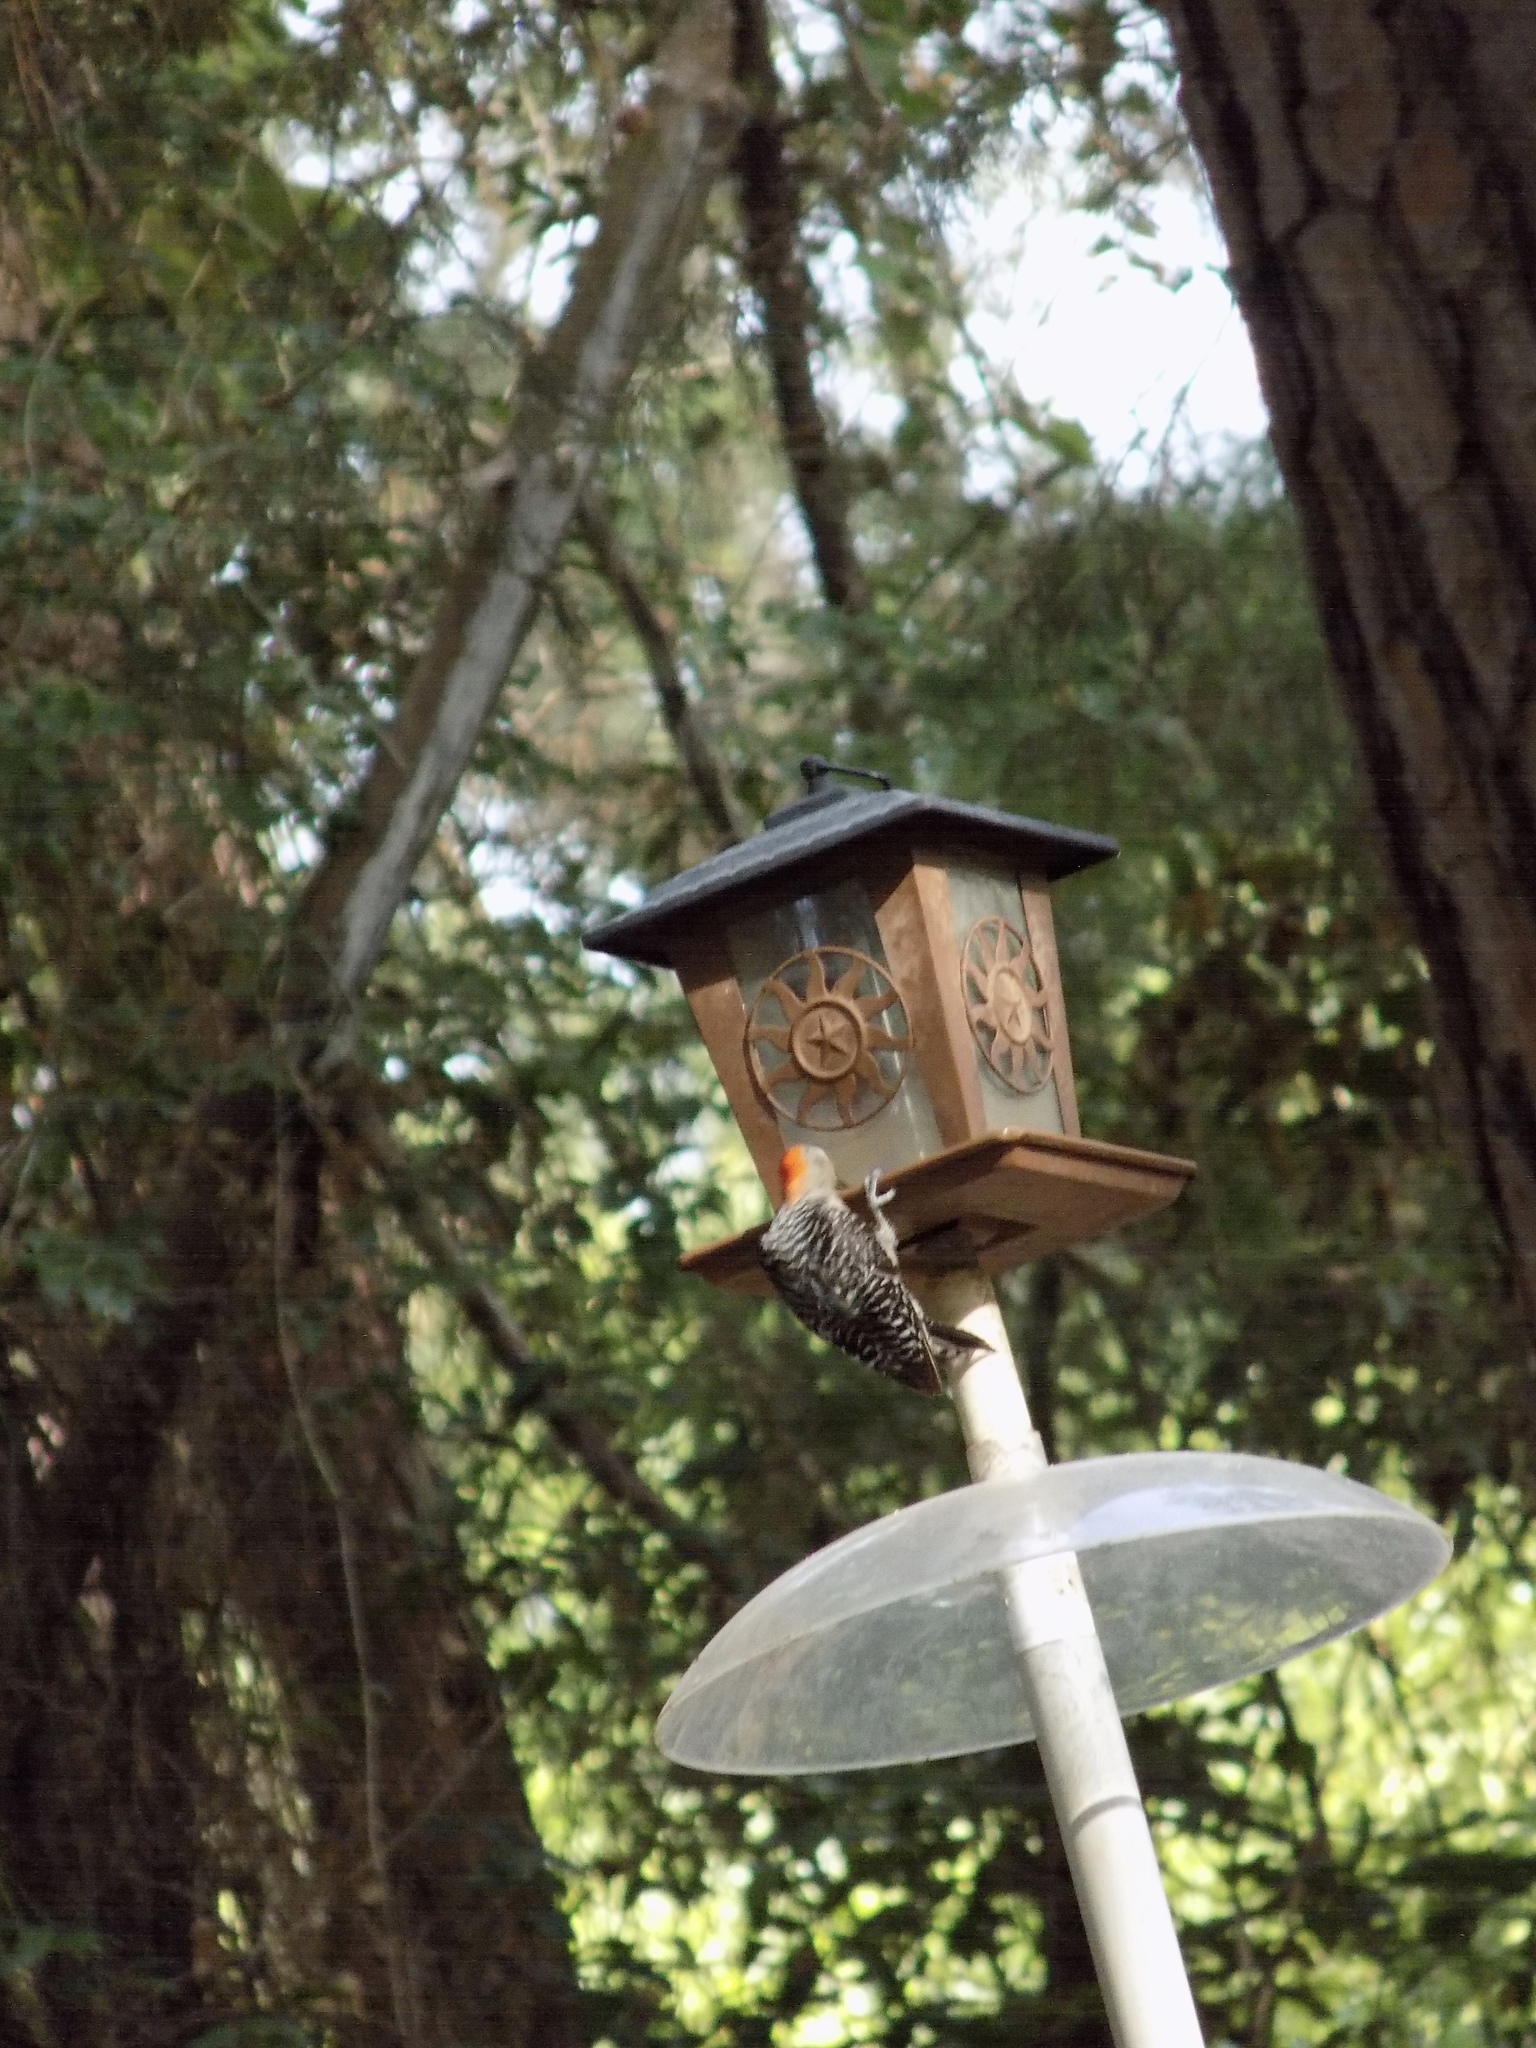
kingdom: Animalia
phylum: Chordata
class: Aves
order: Piciformes
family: Picidae
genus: Melanerpes
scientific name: Melanerpes carolinus
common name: Red-bellied woodpecker
